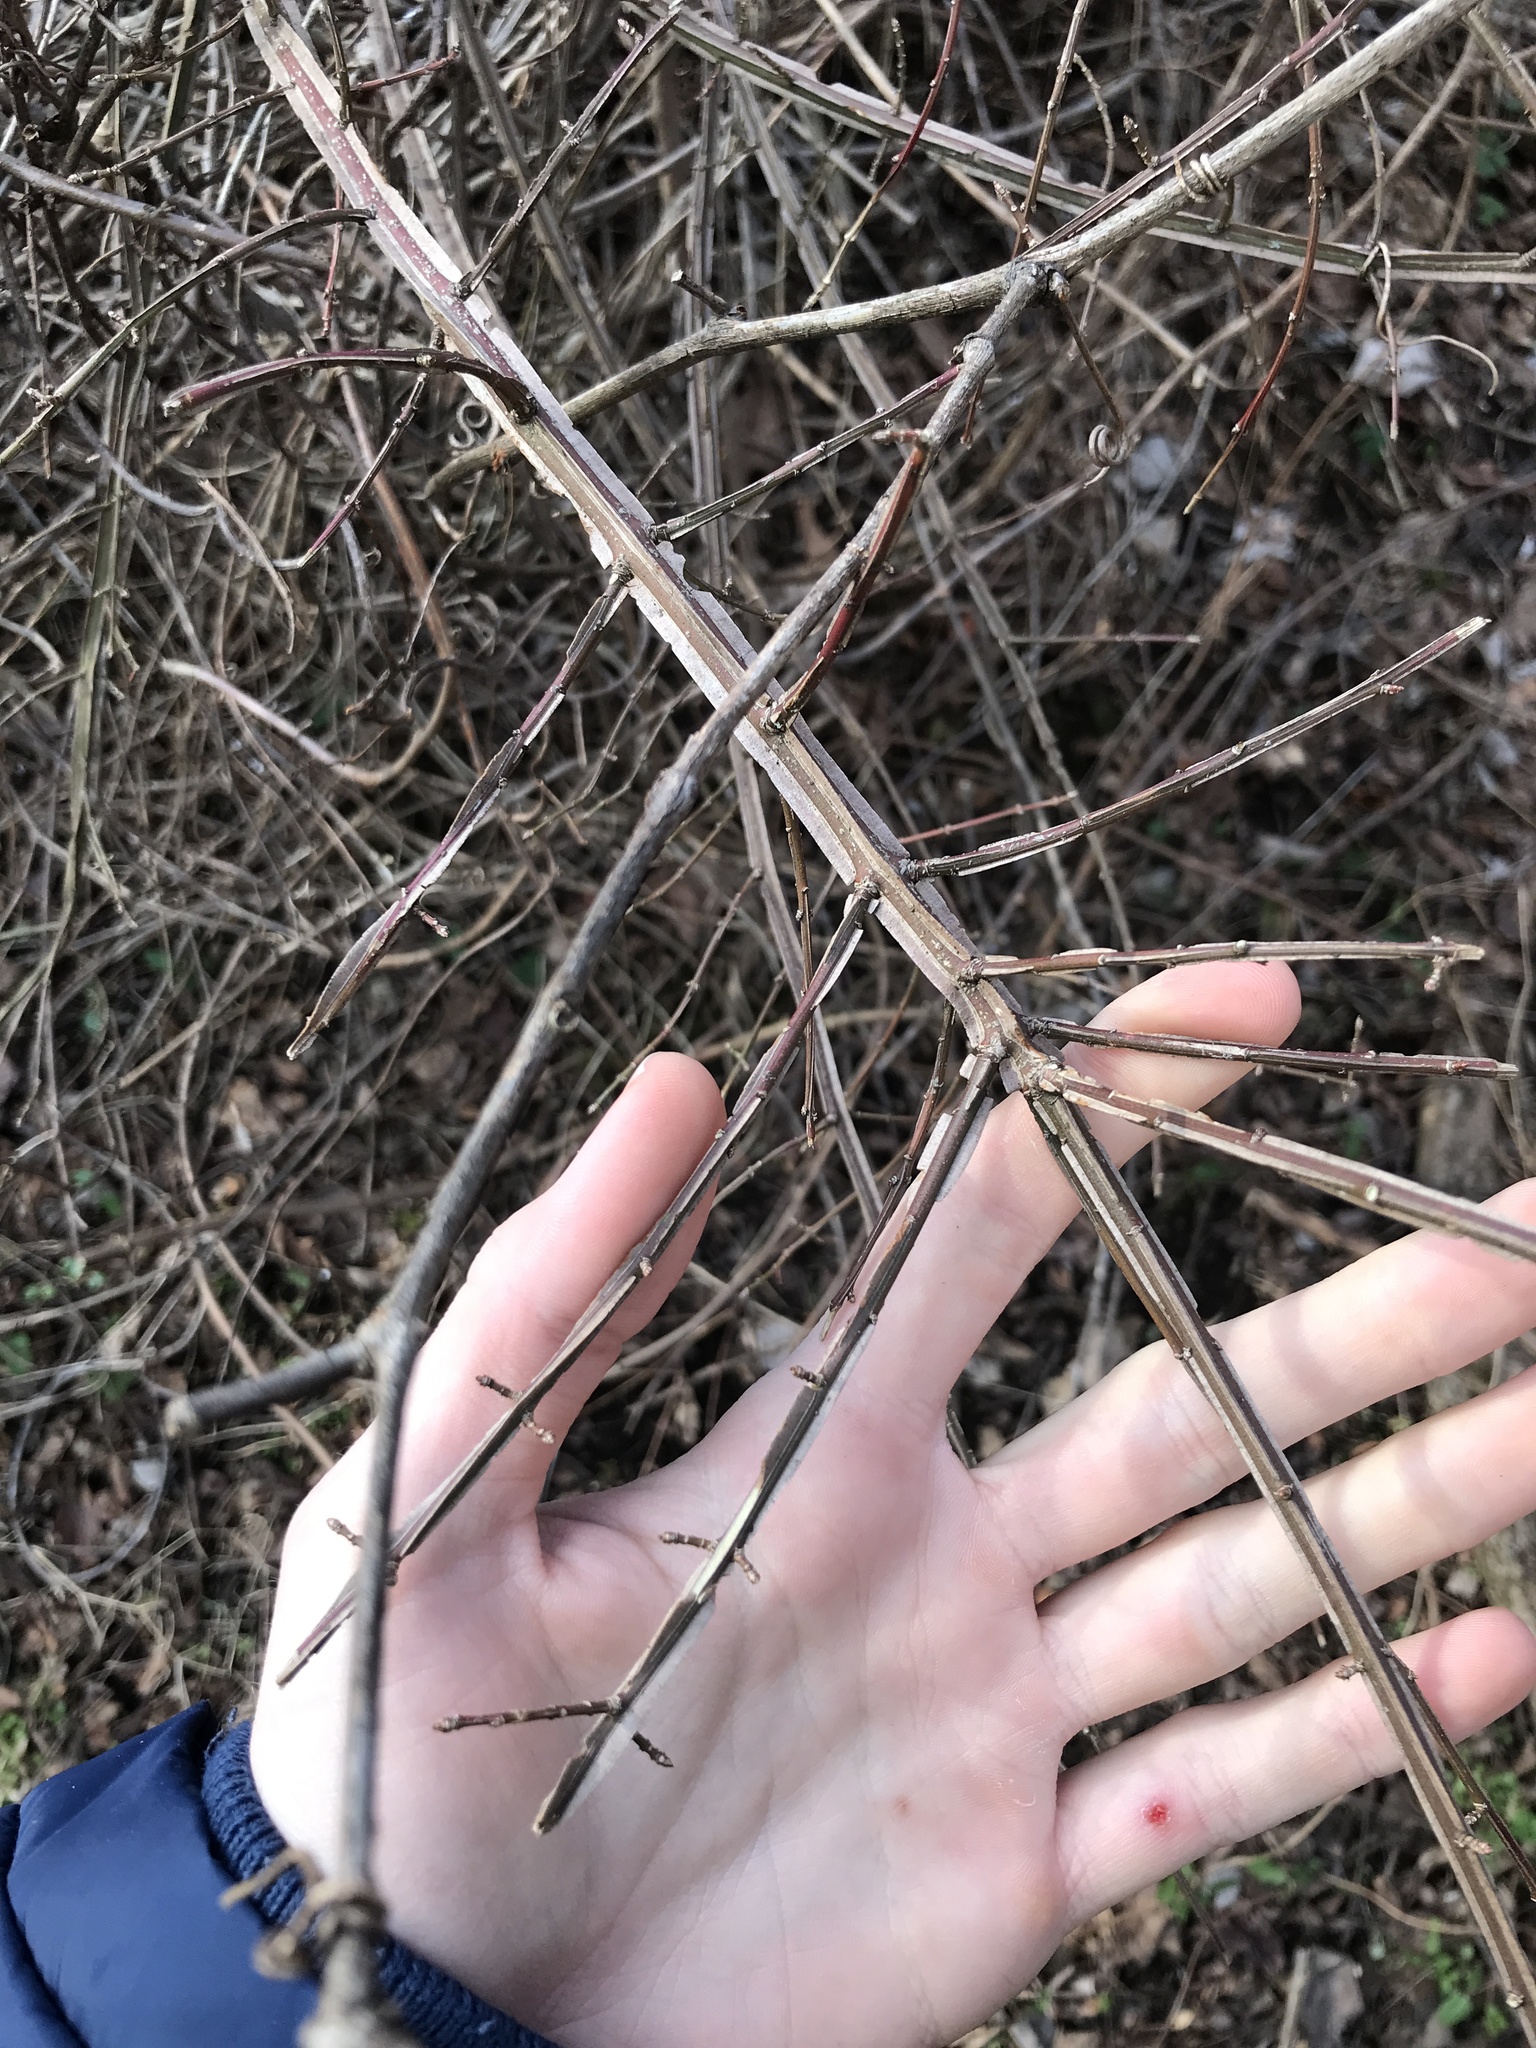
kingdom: Plantae
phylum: Tracheophyta
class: Magnoliopsida
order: Celastrales
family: Celastraceae
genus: Euonymus
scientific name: Euonymus alatus
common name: Winged euonymus
